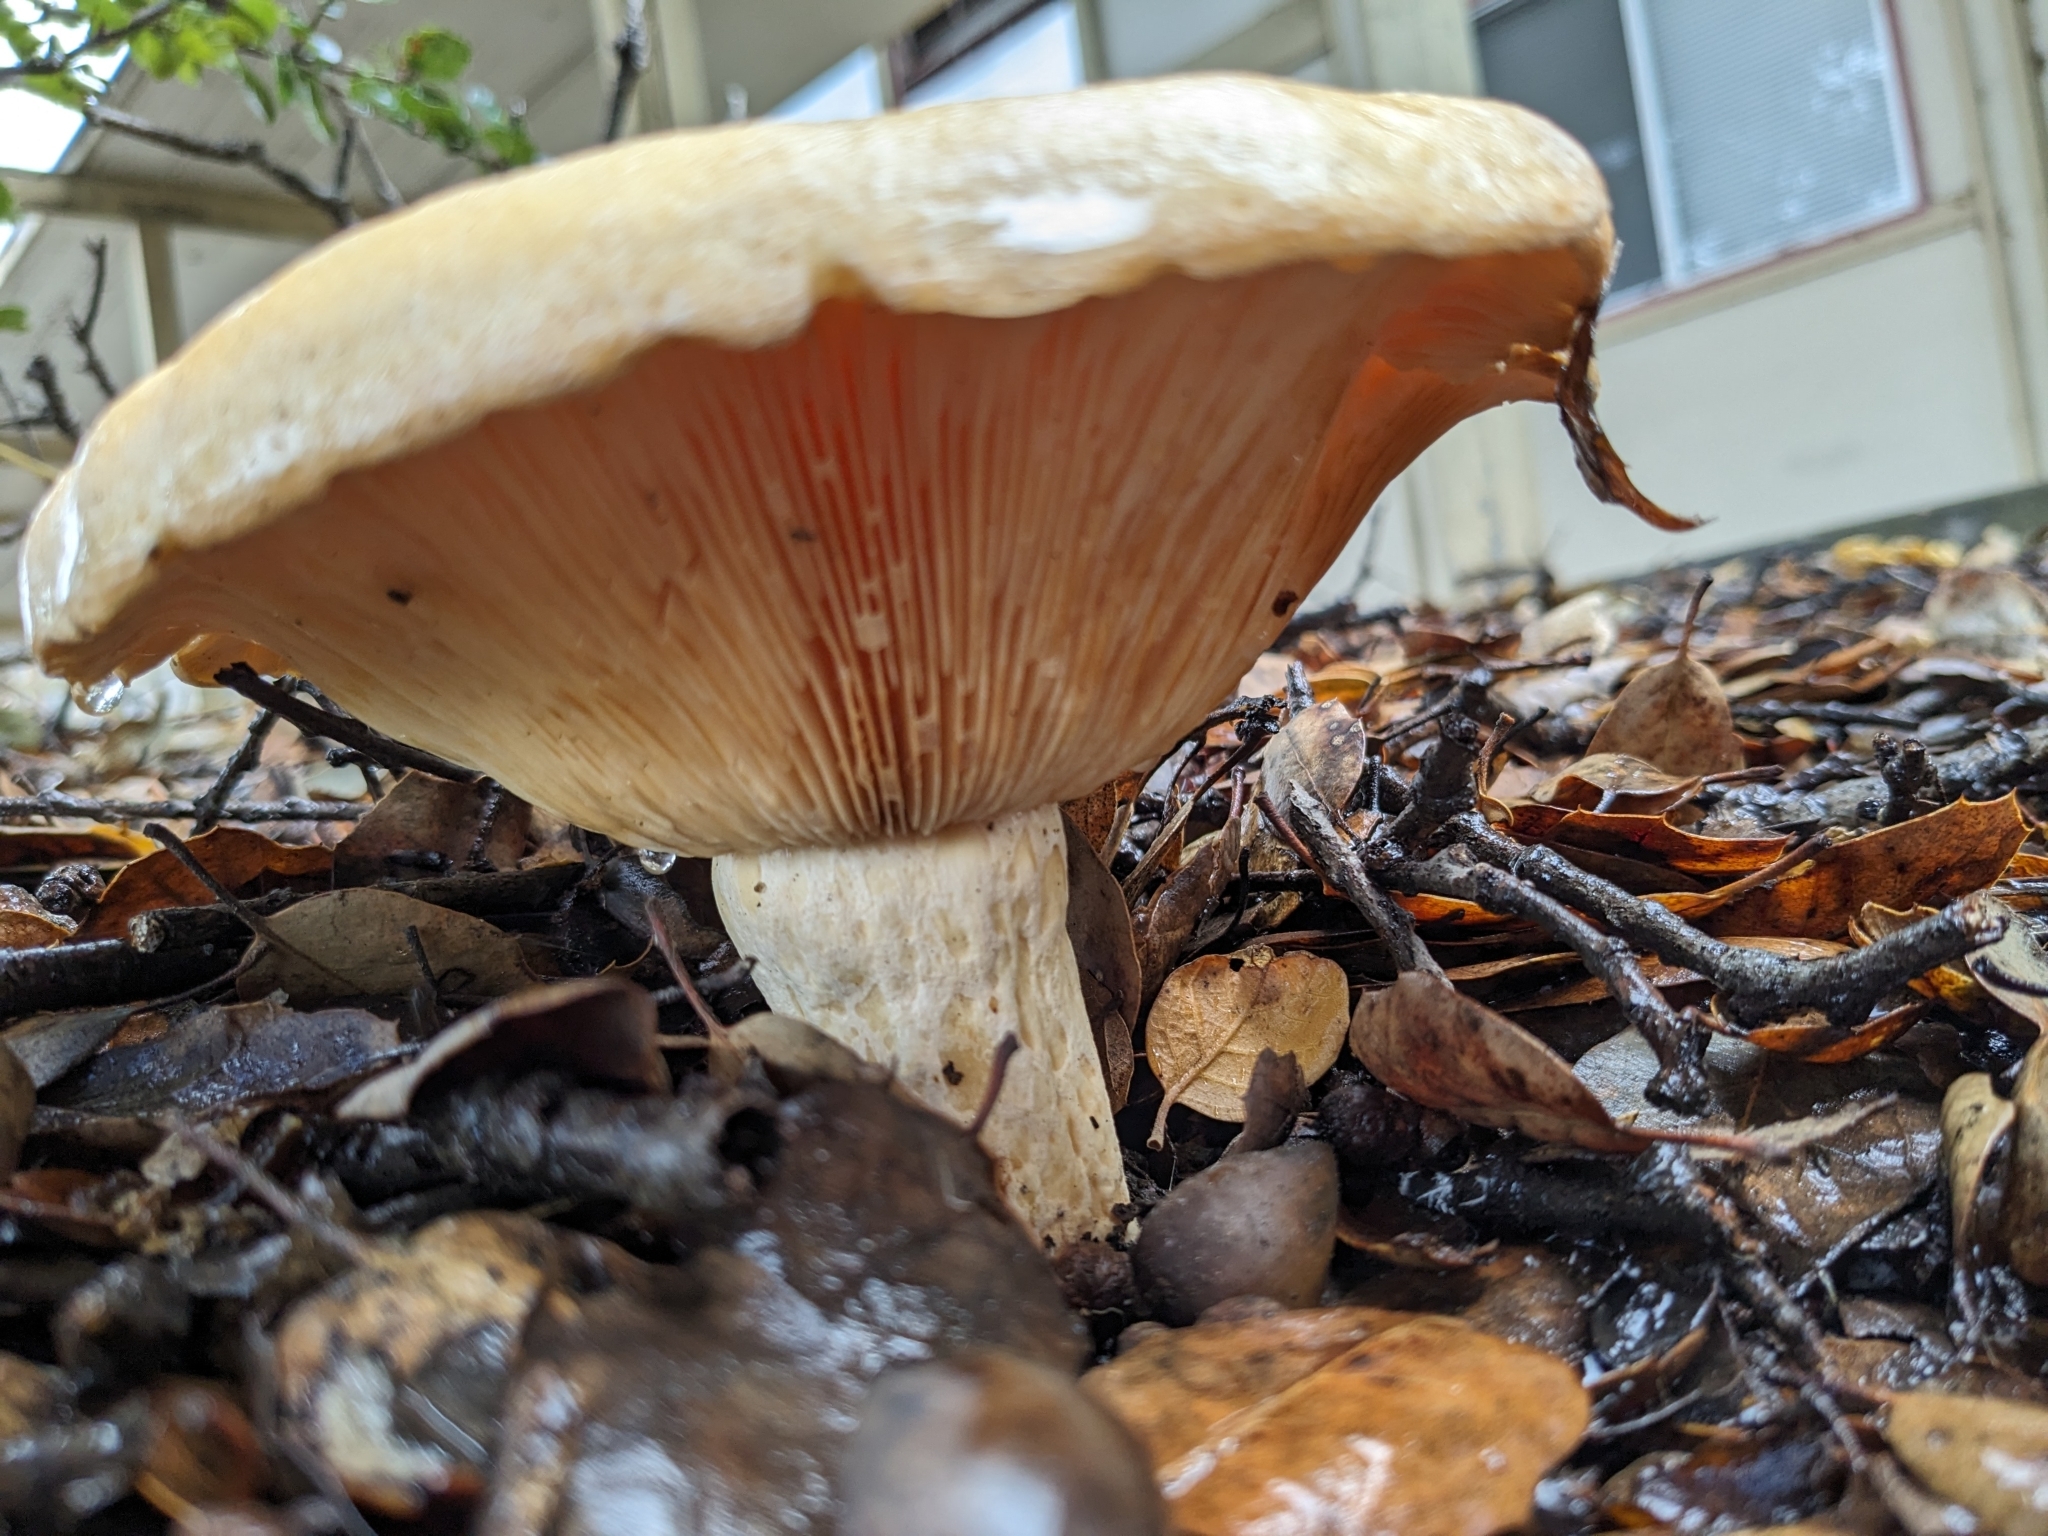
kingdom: Fungi
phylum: Basidiomycota
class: Agaricomycetes
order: Russulales
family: Russulaceae
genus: Lactarius
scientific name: Lactarius alnicola
